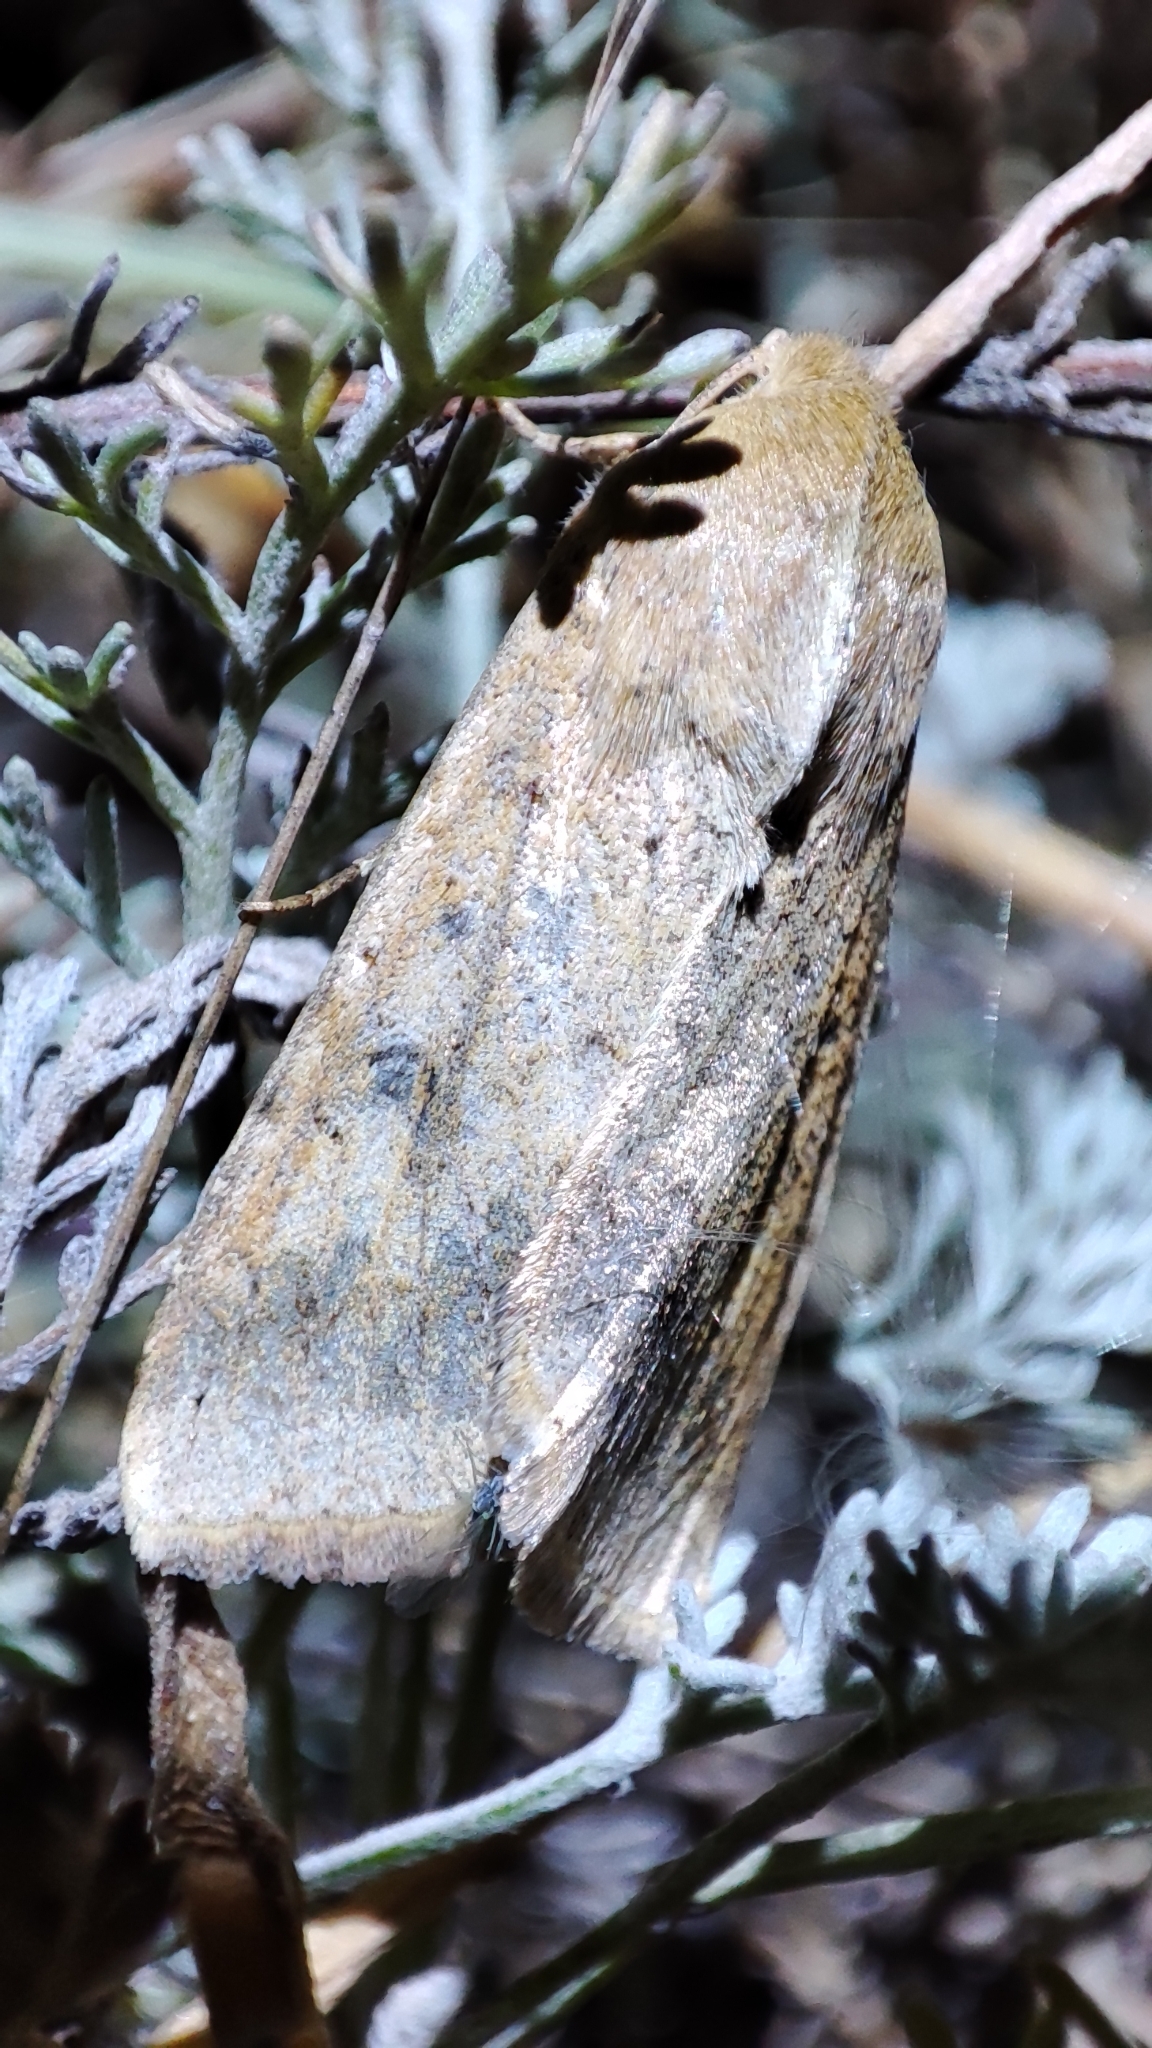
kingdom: Animalia
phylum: Arthropoda
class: Insecta
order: Lepidoptera
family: Noctuidae
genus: Helicoverpa
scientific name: Helicoverpa armigera
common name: Cotton bollworm
